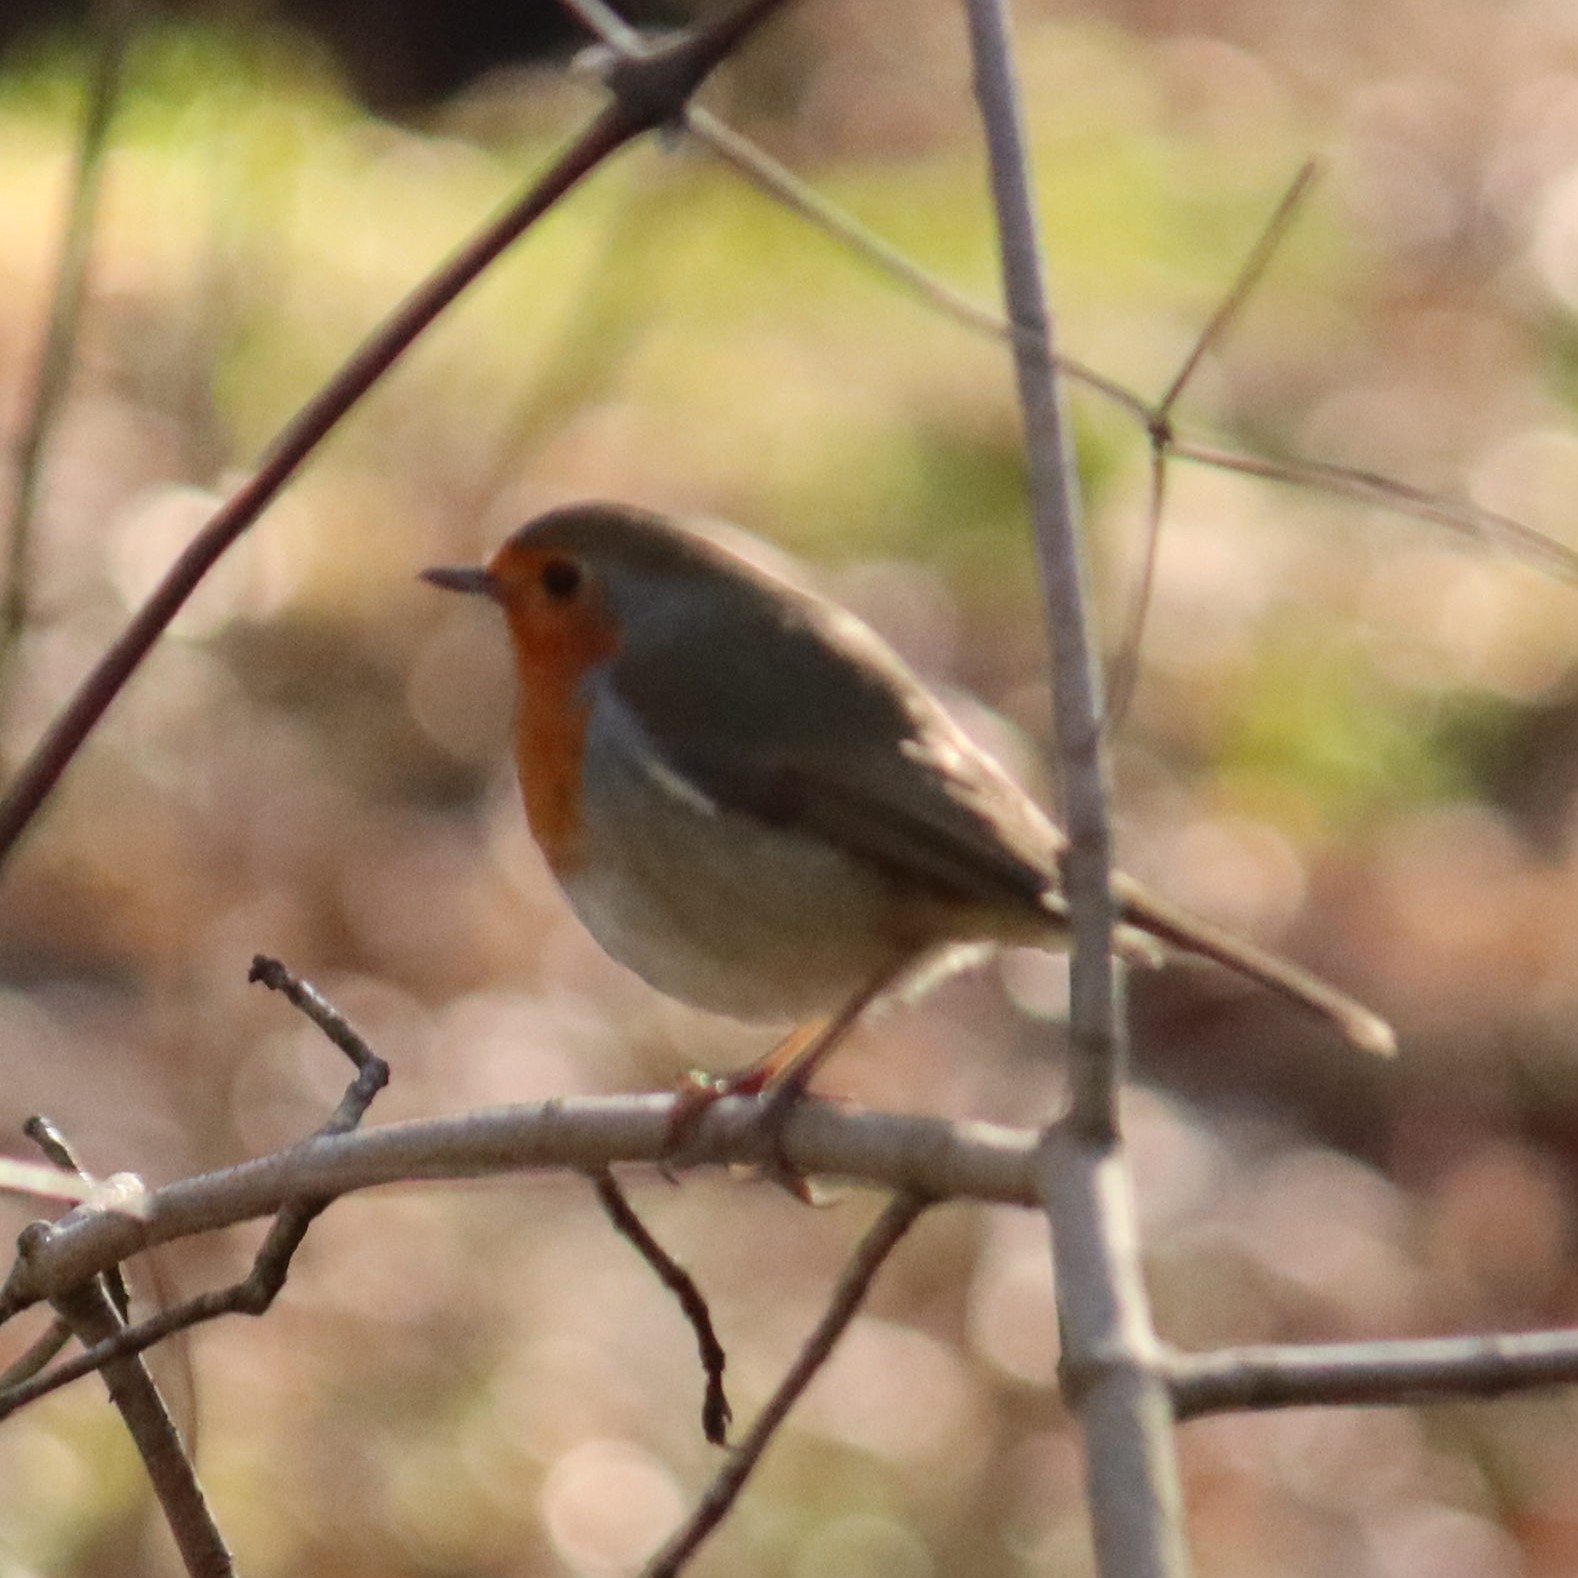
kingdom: Animalia
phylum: Chordata
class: Aves
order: Passeriformes
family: Muscicapidae
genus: Erithacus
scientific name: Erithacus rubecula
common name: European robin
